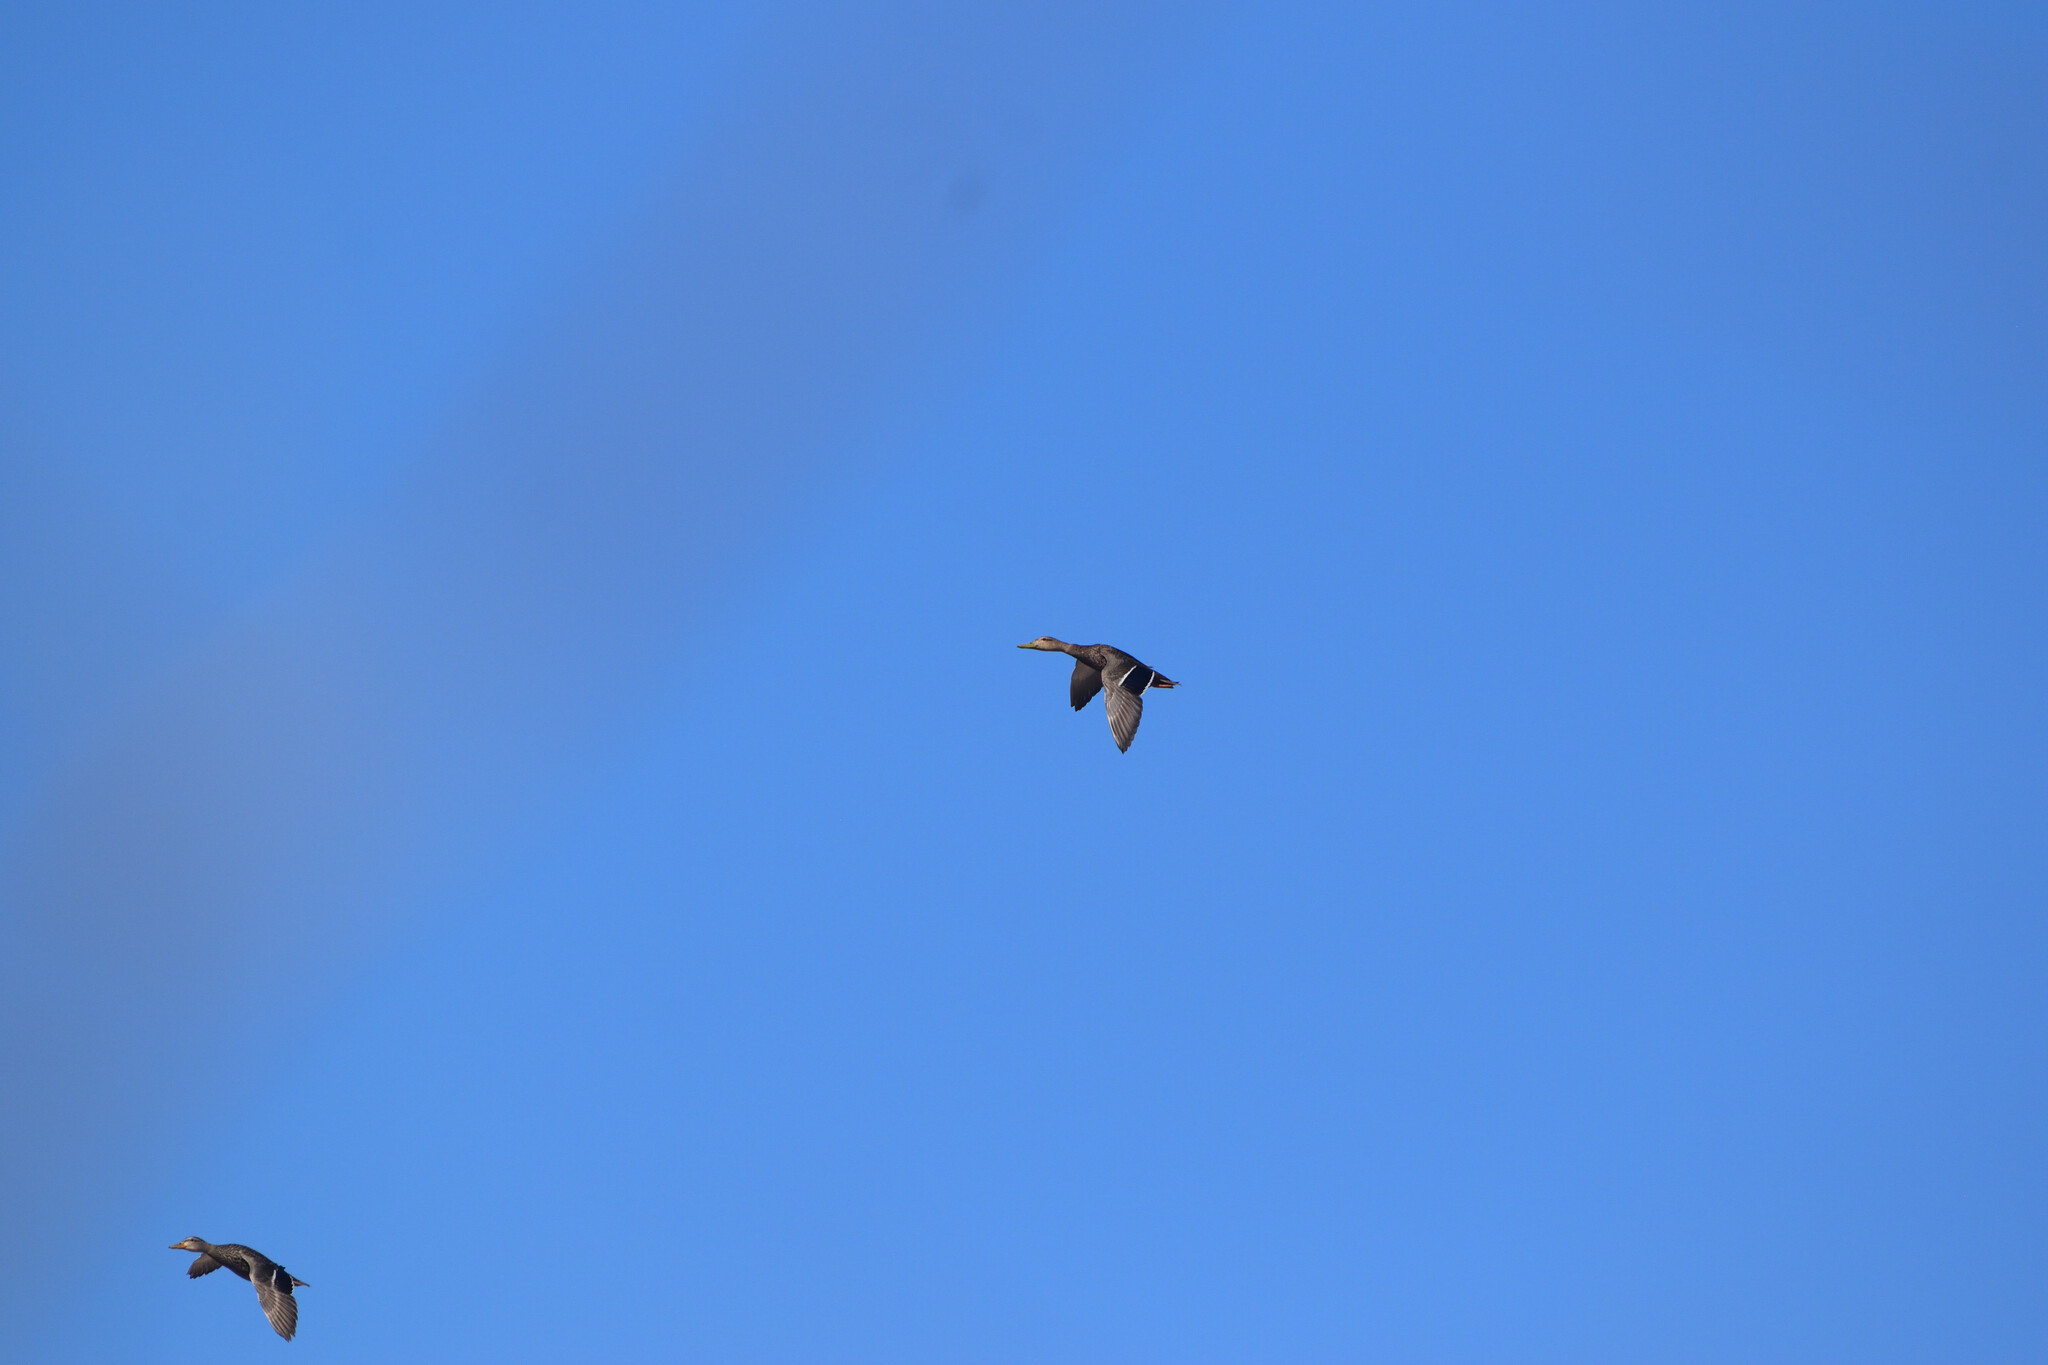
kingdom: Animalia
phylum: Chordata
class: Aves
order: Anseriformes
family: Anatidae
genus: Anas
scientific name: Anas diazi
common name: Mexican duck
